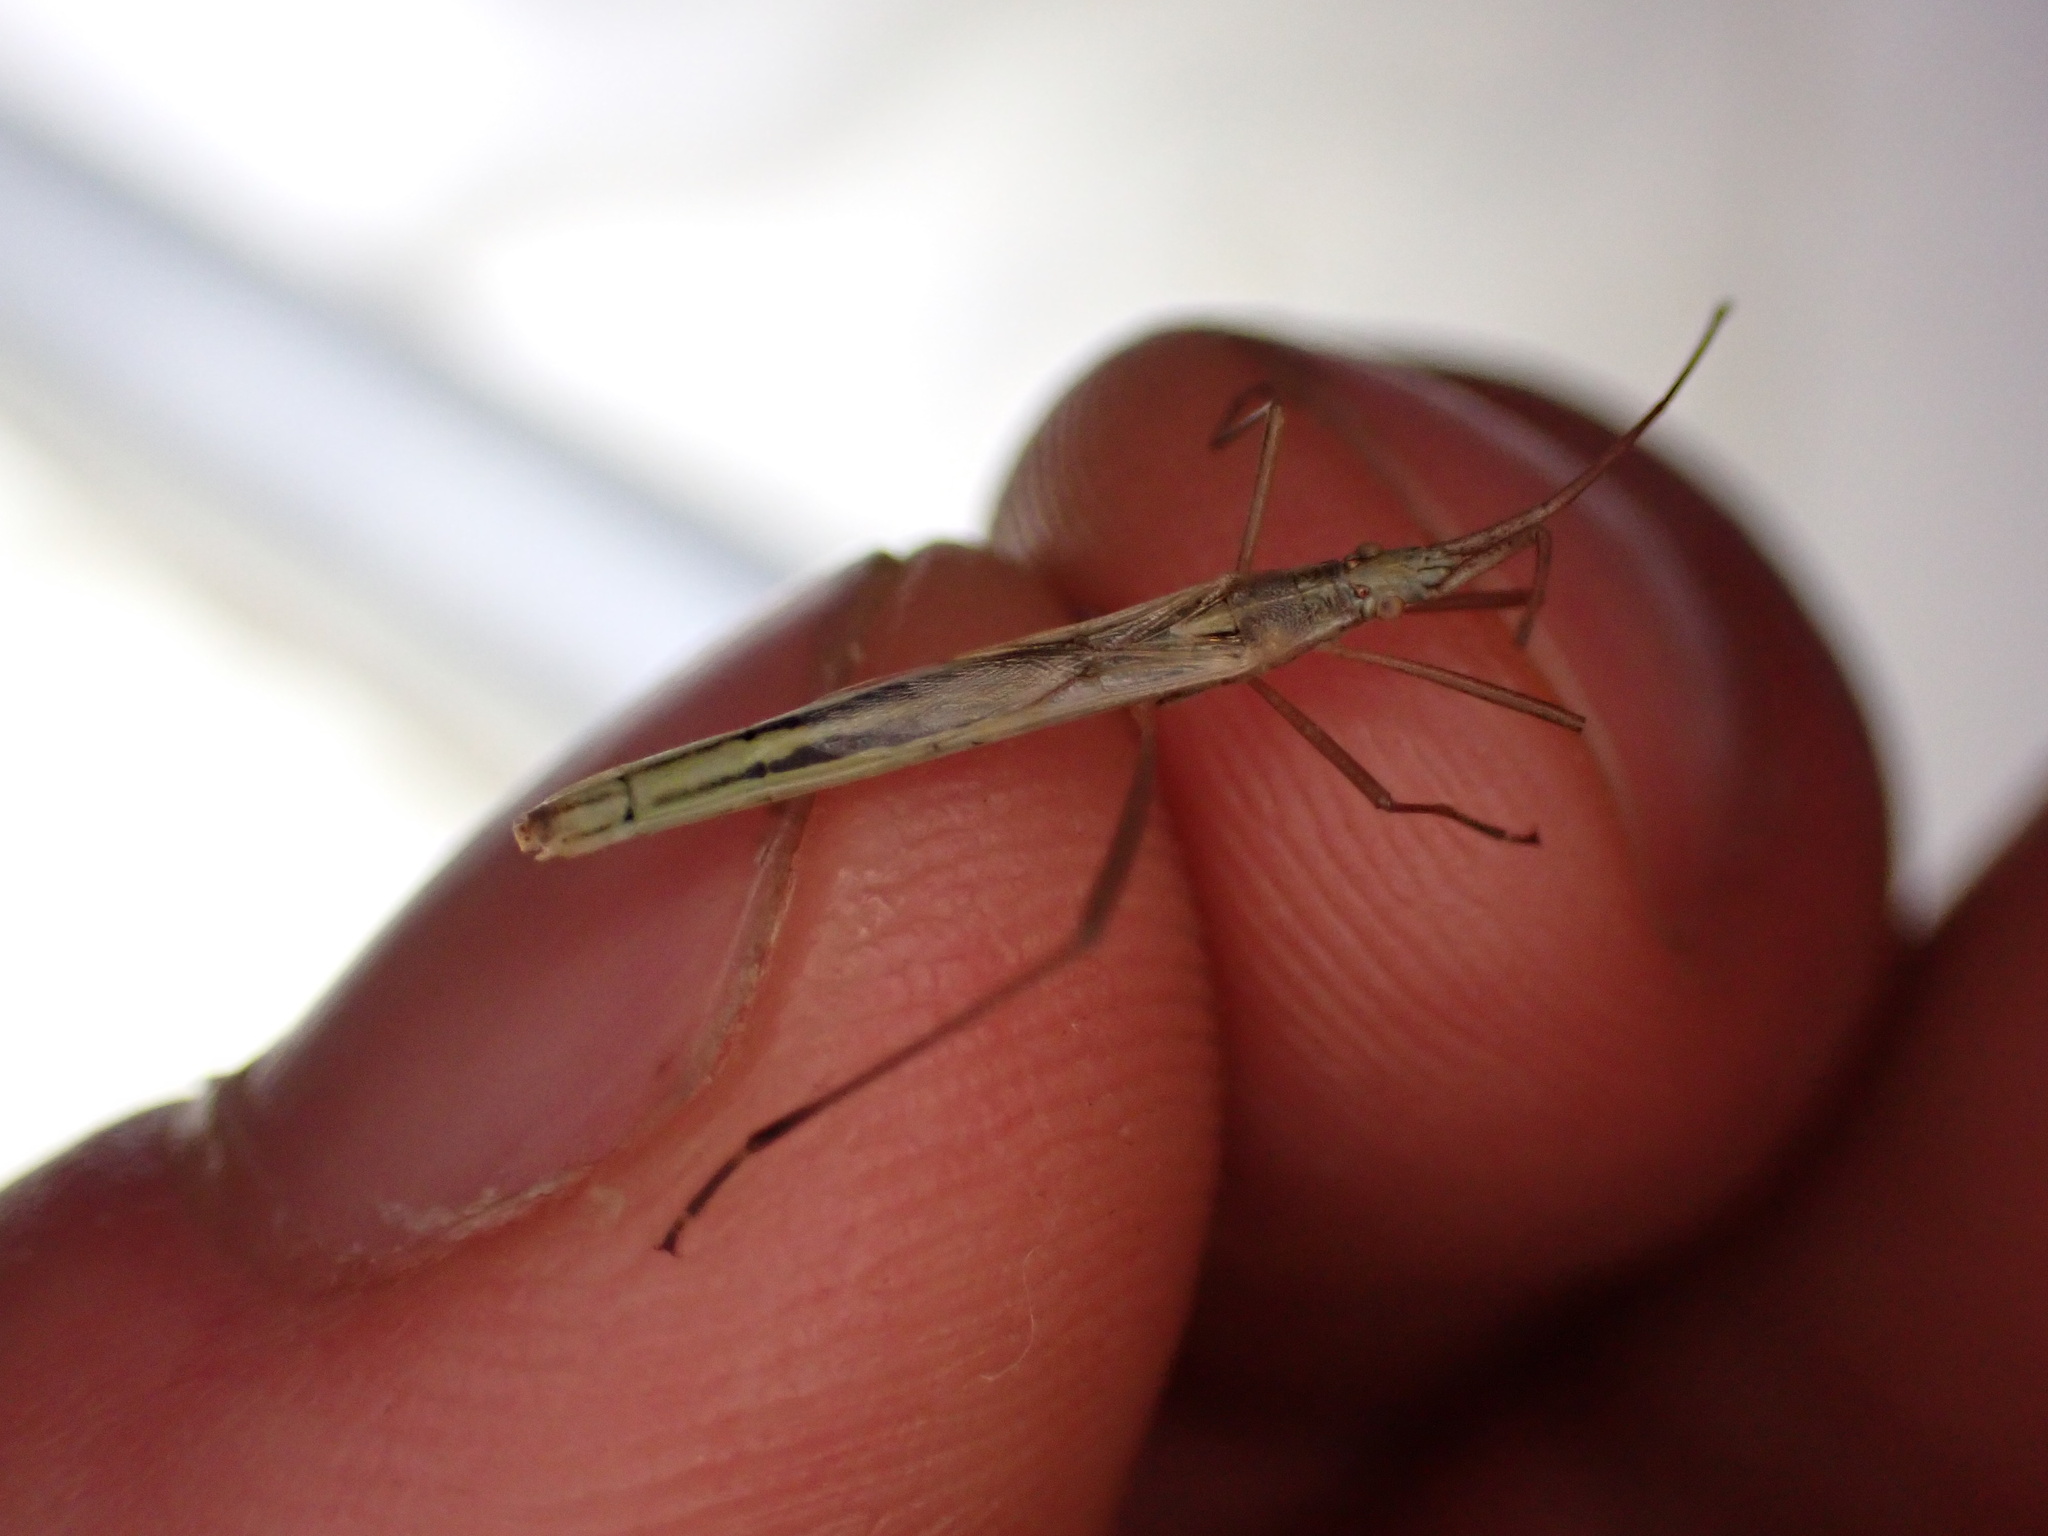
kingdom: Animalia
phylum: Arthropoda
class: Insecta
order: Hemiptera
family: Rhopalidae
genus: Chorosoma
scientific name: Chorosoma schillingii
